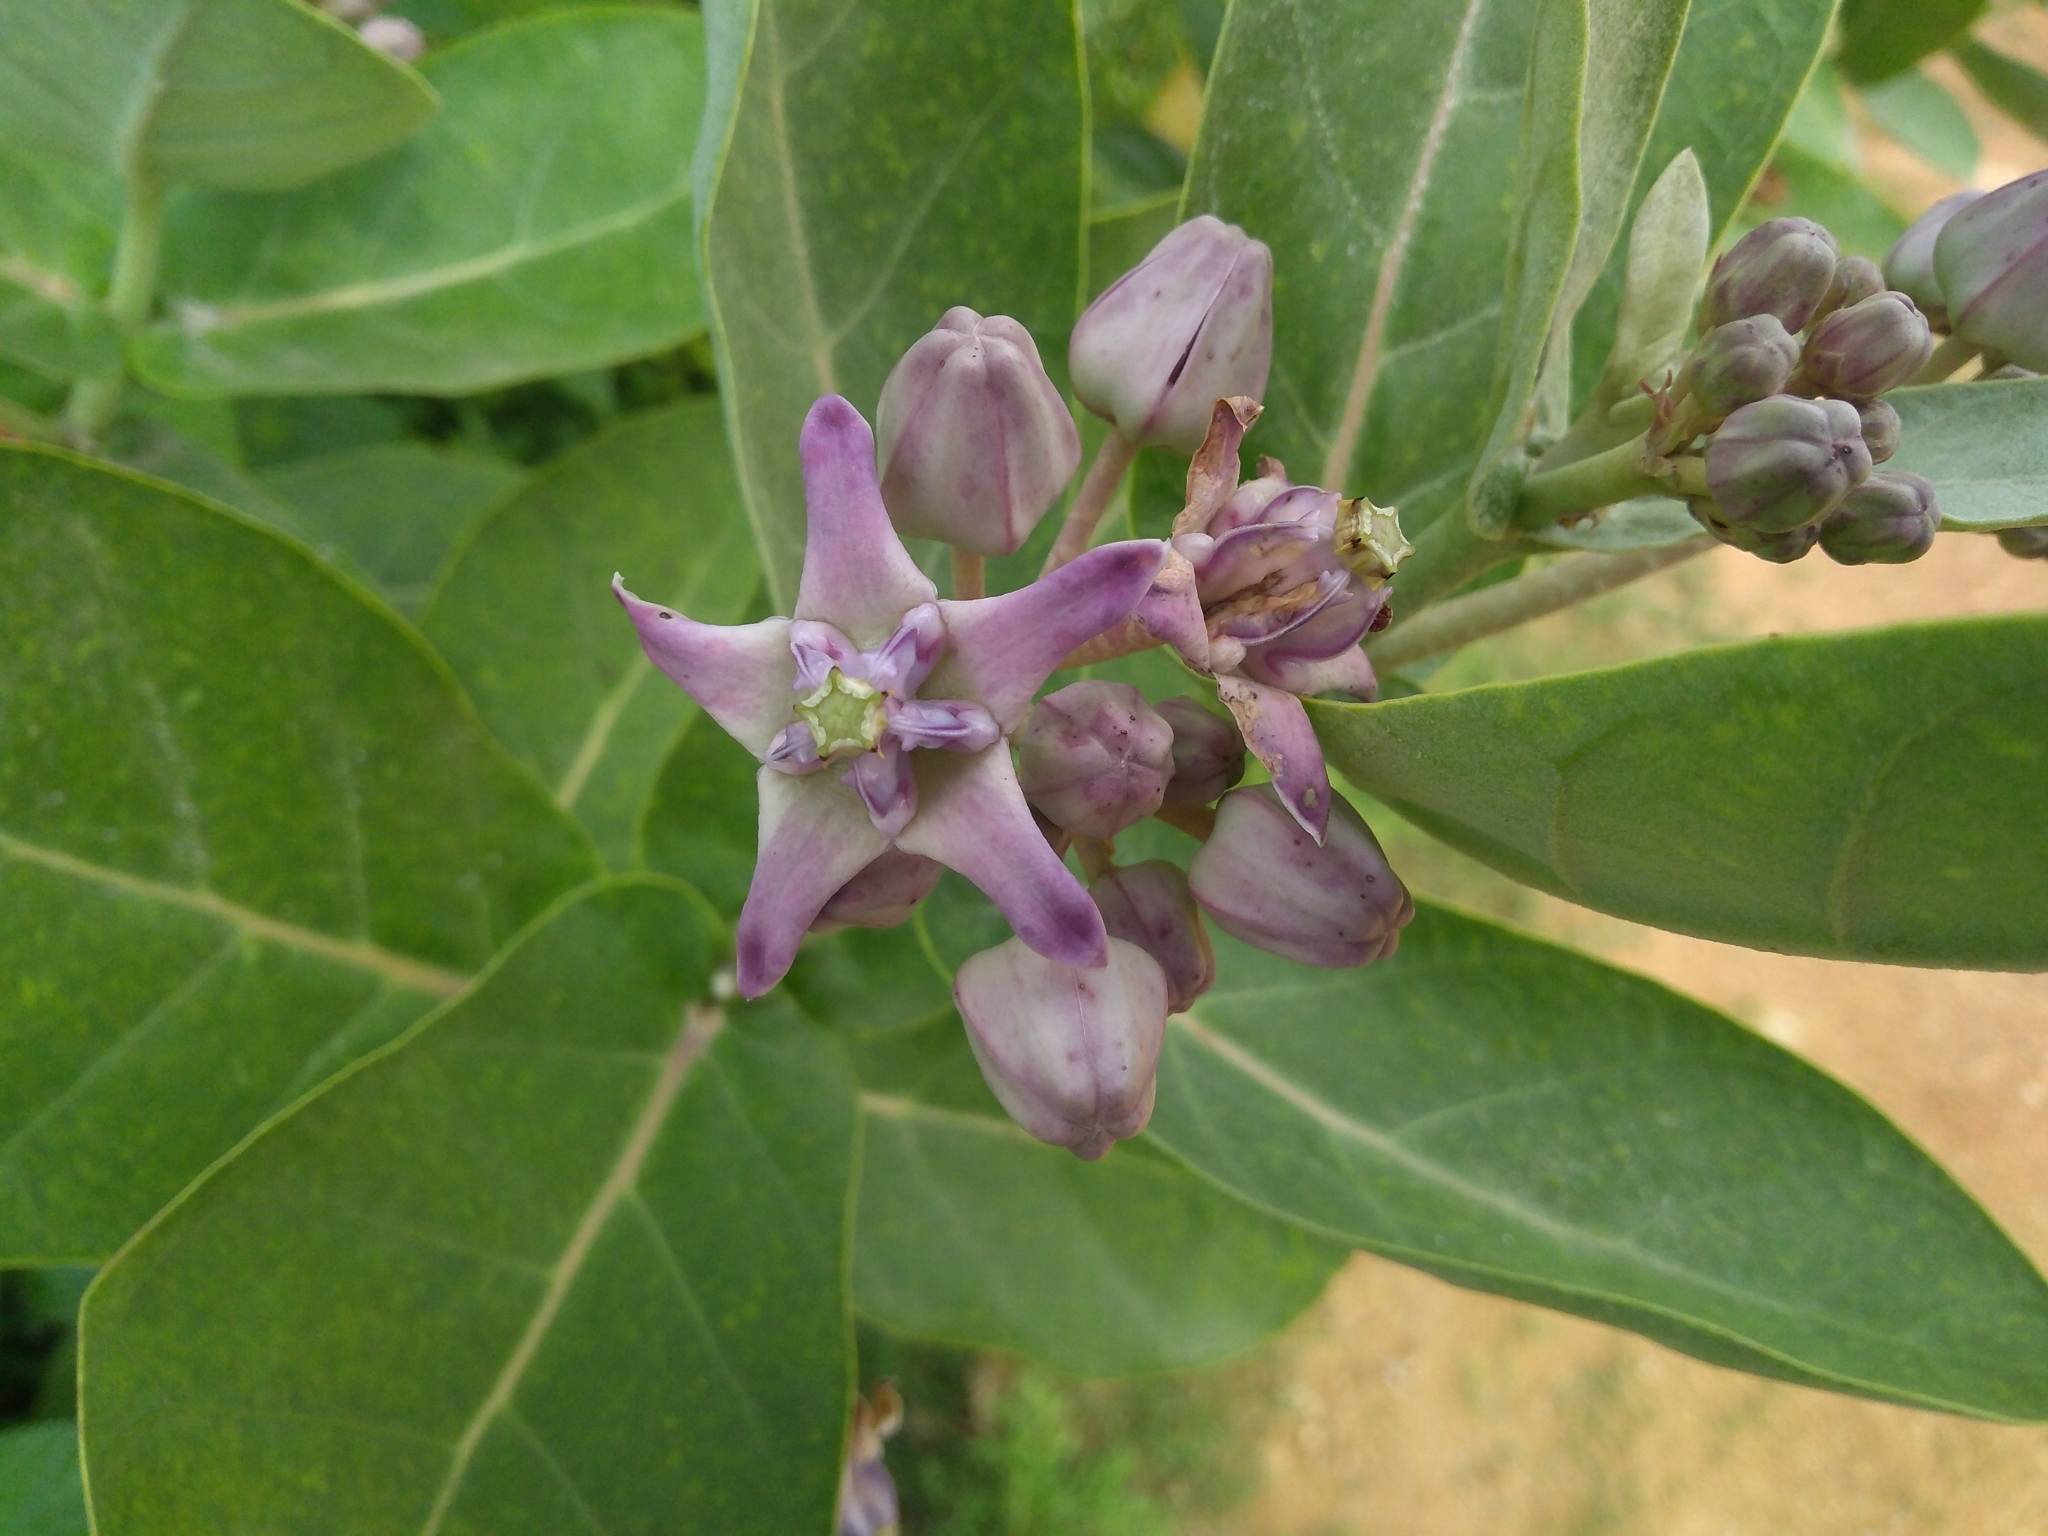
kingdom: Plantae
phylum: Tracheophyta
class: Magnoliopsida
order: Gentianales
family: Apocynaceae
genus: Calotropis
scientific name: Calotropis gigantea
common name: Crown flower
